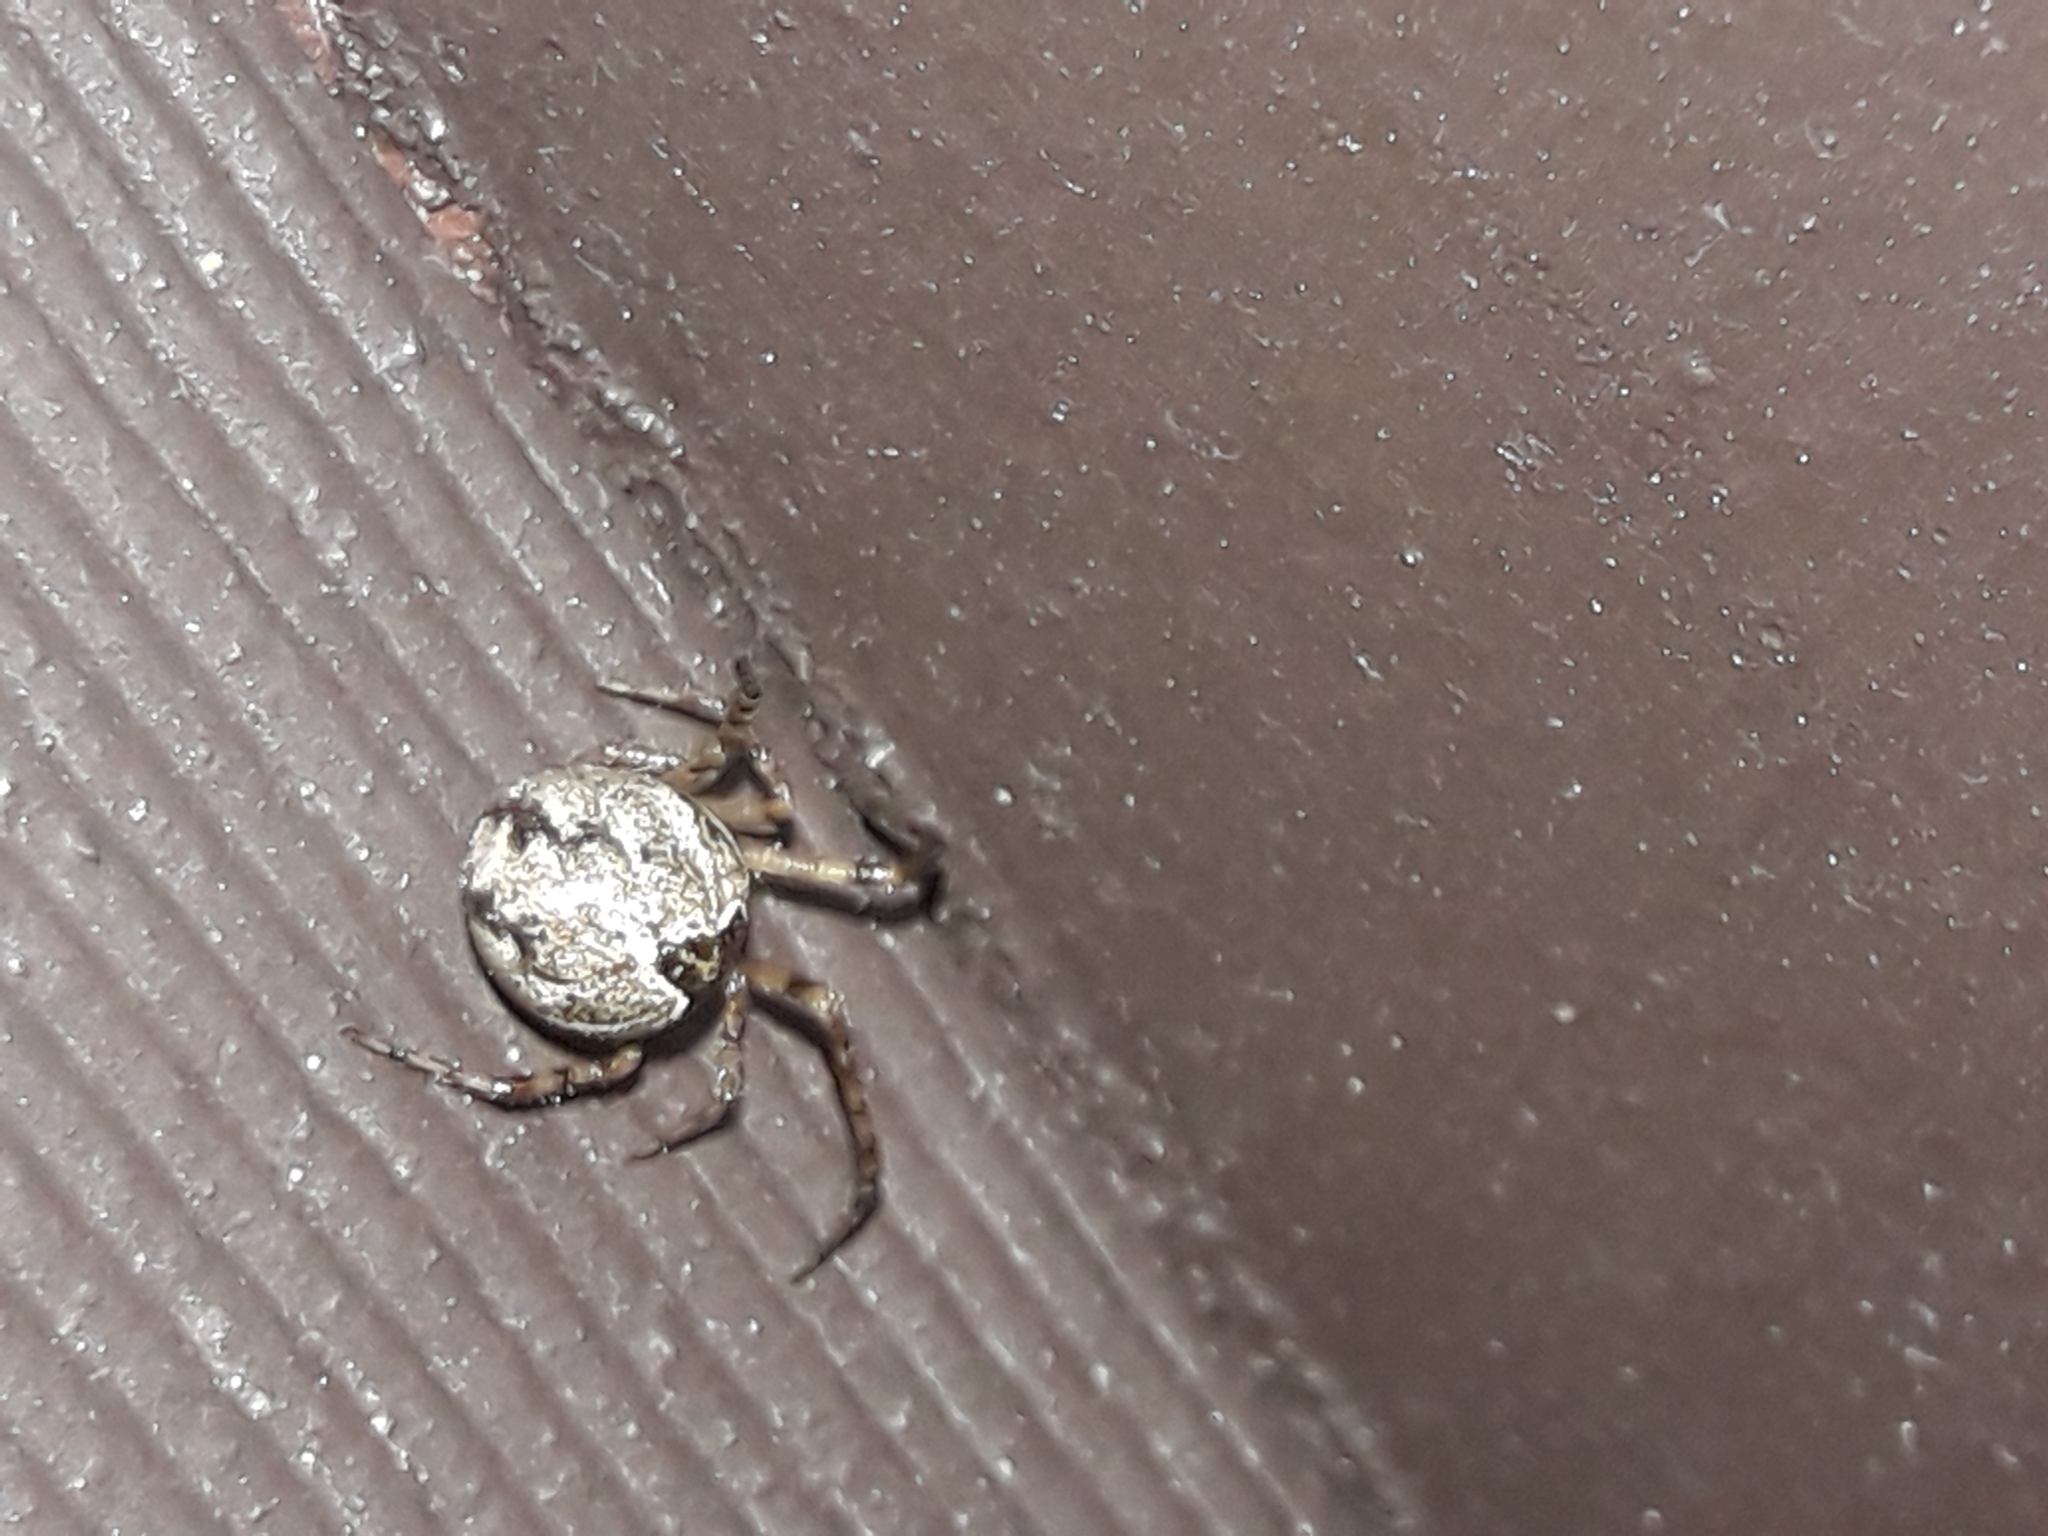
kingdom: Animalia
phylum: Arthropoda
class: Arachnida
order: Araneae
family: Theridiidae
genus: Cryptachaea
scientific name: Cryptachaea veruculata
